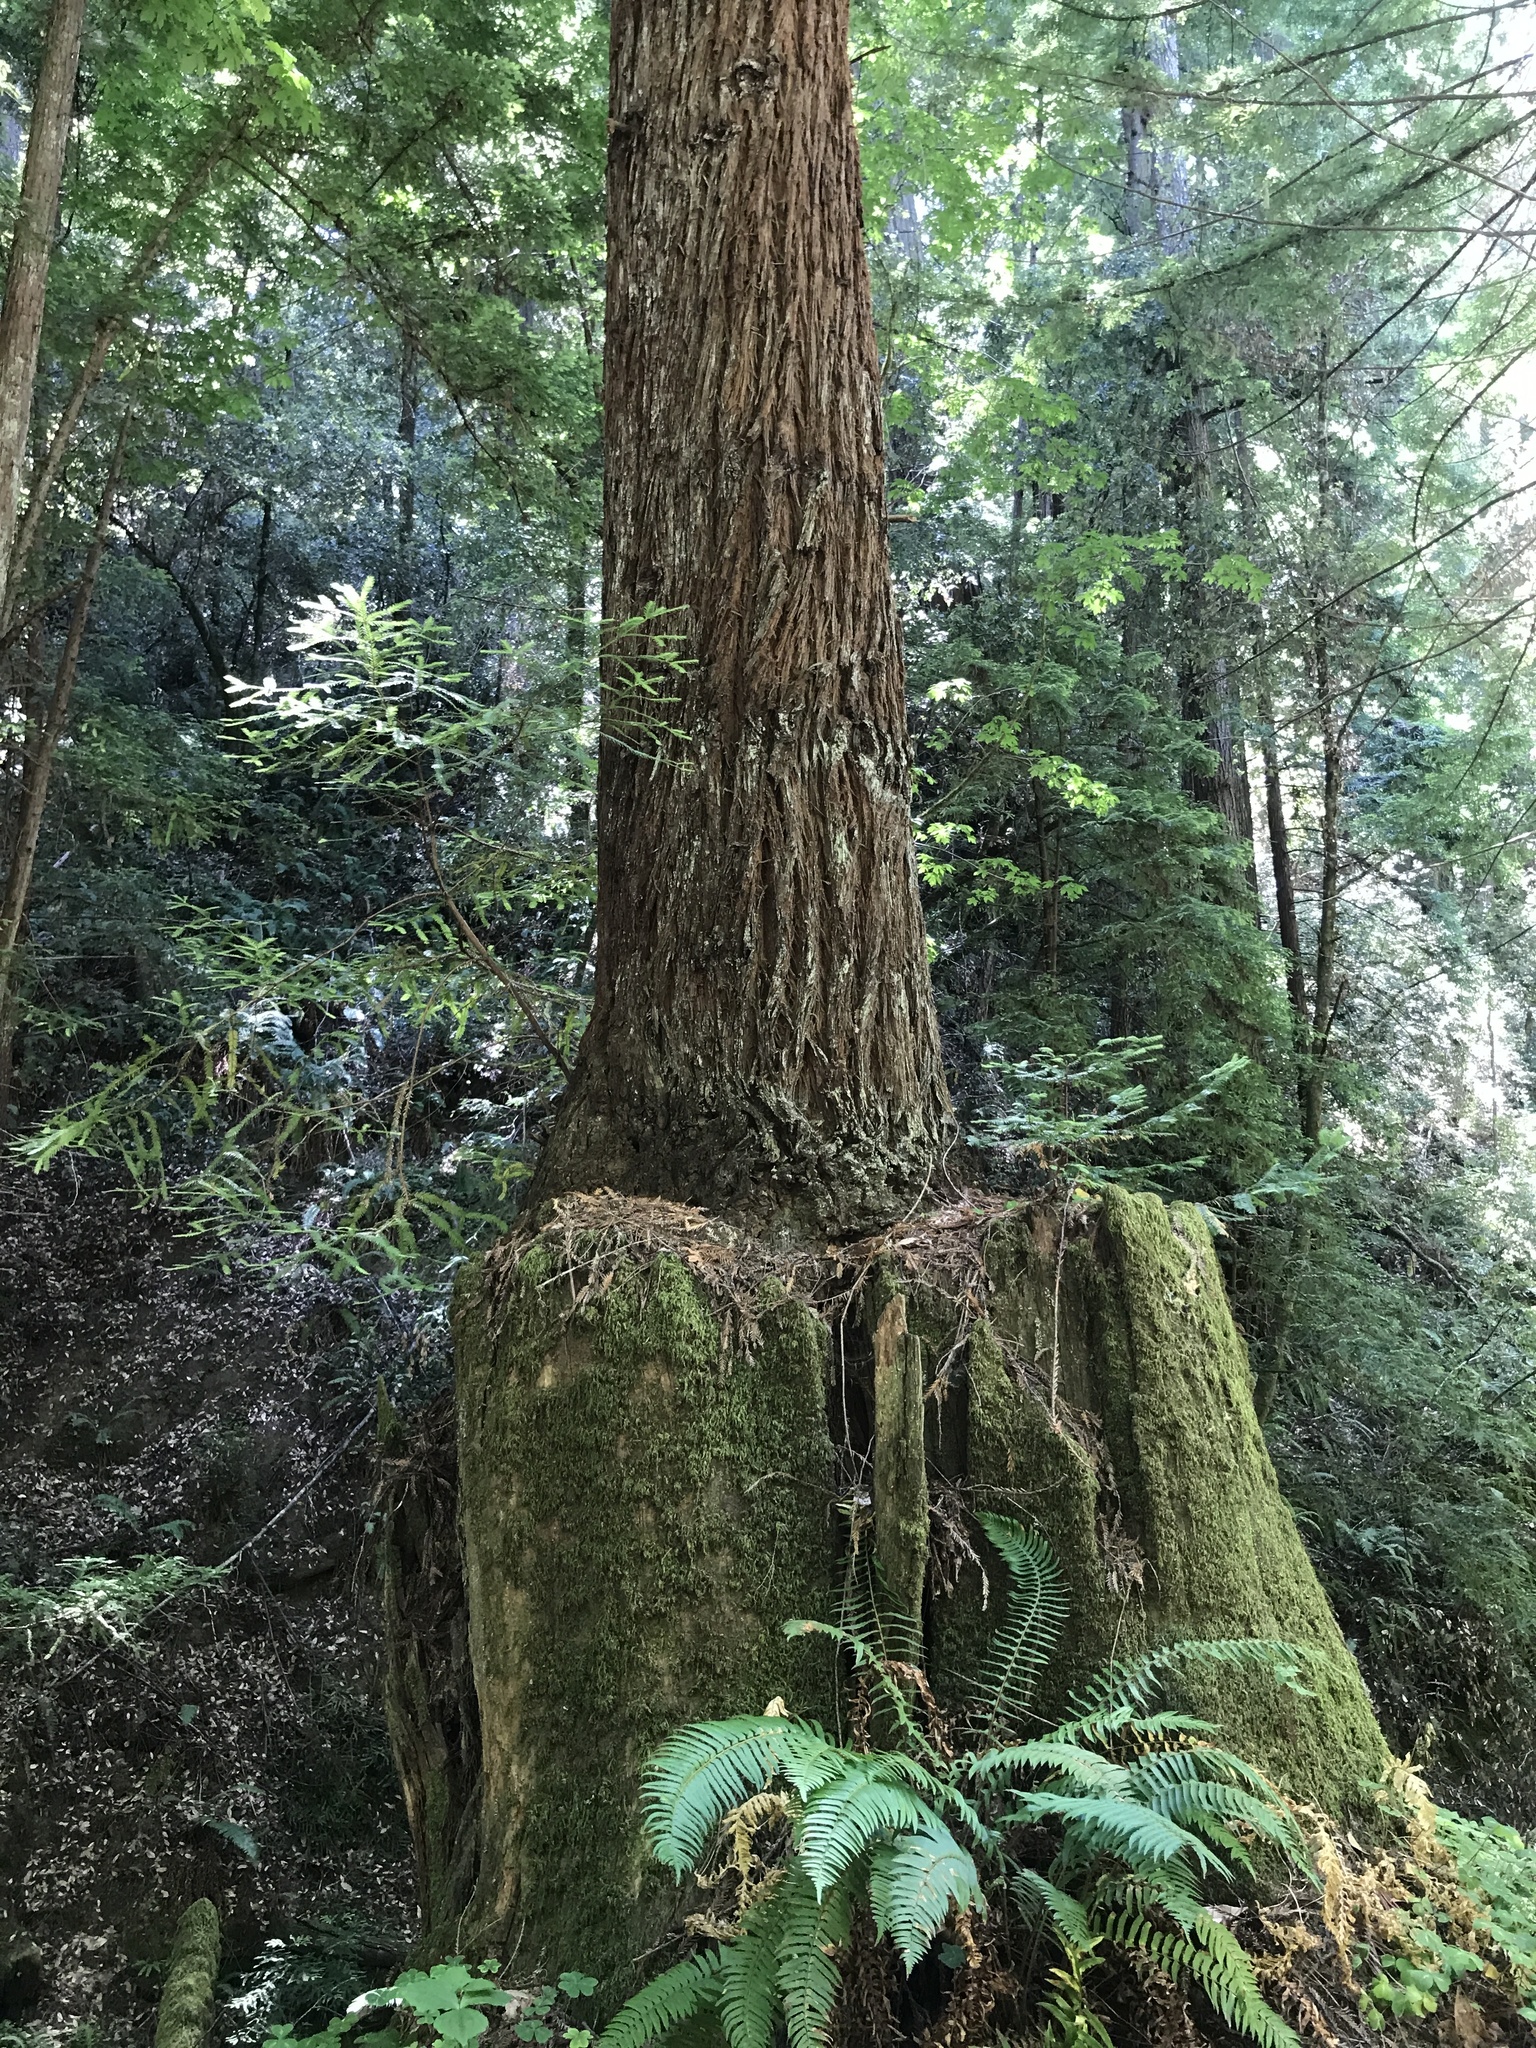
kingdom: Plantae
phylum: Tracheophyta
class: Pinopsida
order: Pinales
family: Cupressaceae
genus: Sequoia
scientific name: Sequoia sempervirens
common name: Coast redwood
